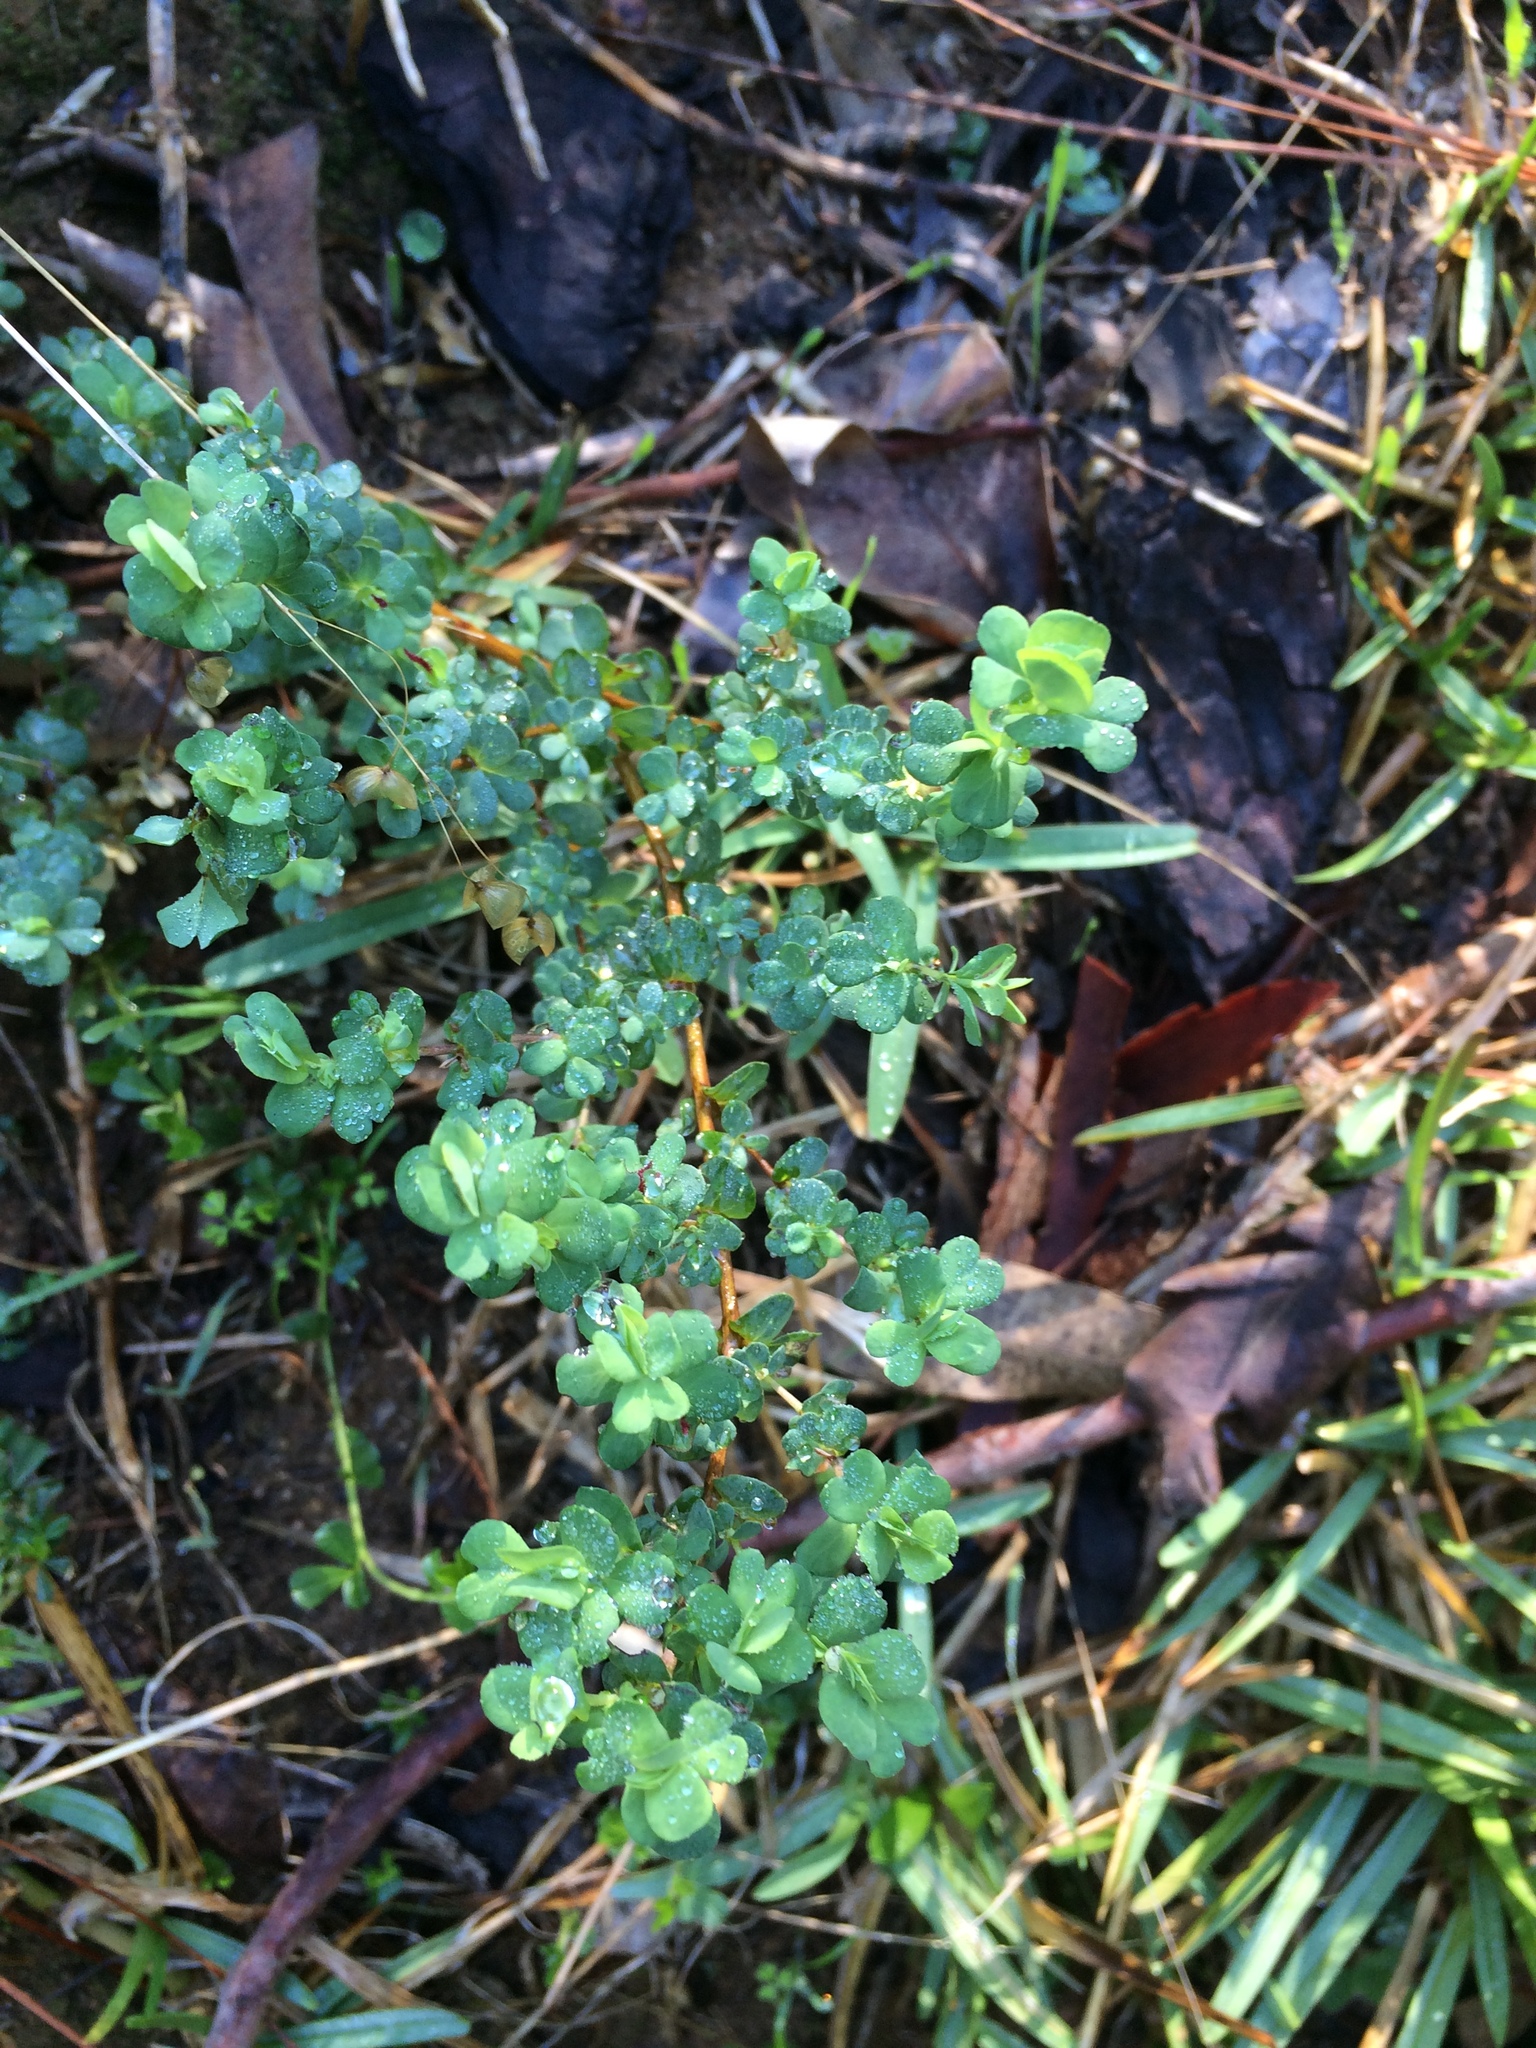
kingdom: Plantae
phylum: Tracheophyta
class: Magnoliopsida
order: Rosales
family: Rosaceae
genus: Cliffortia
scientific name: Cliffortia obcordata
